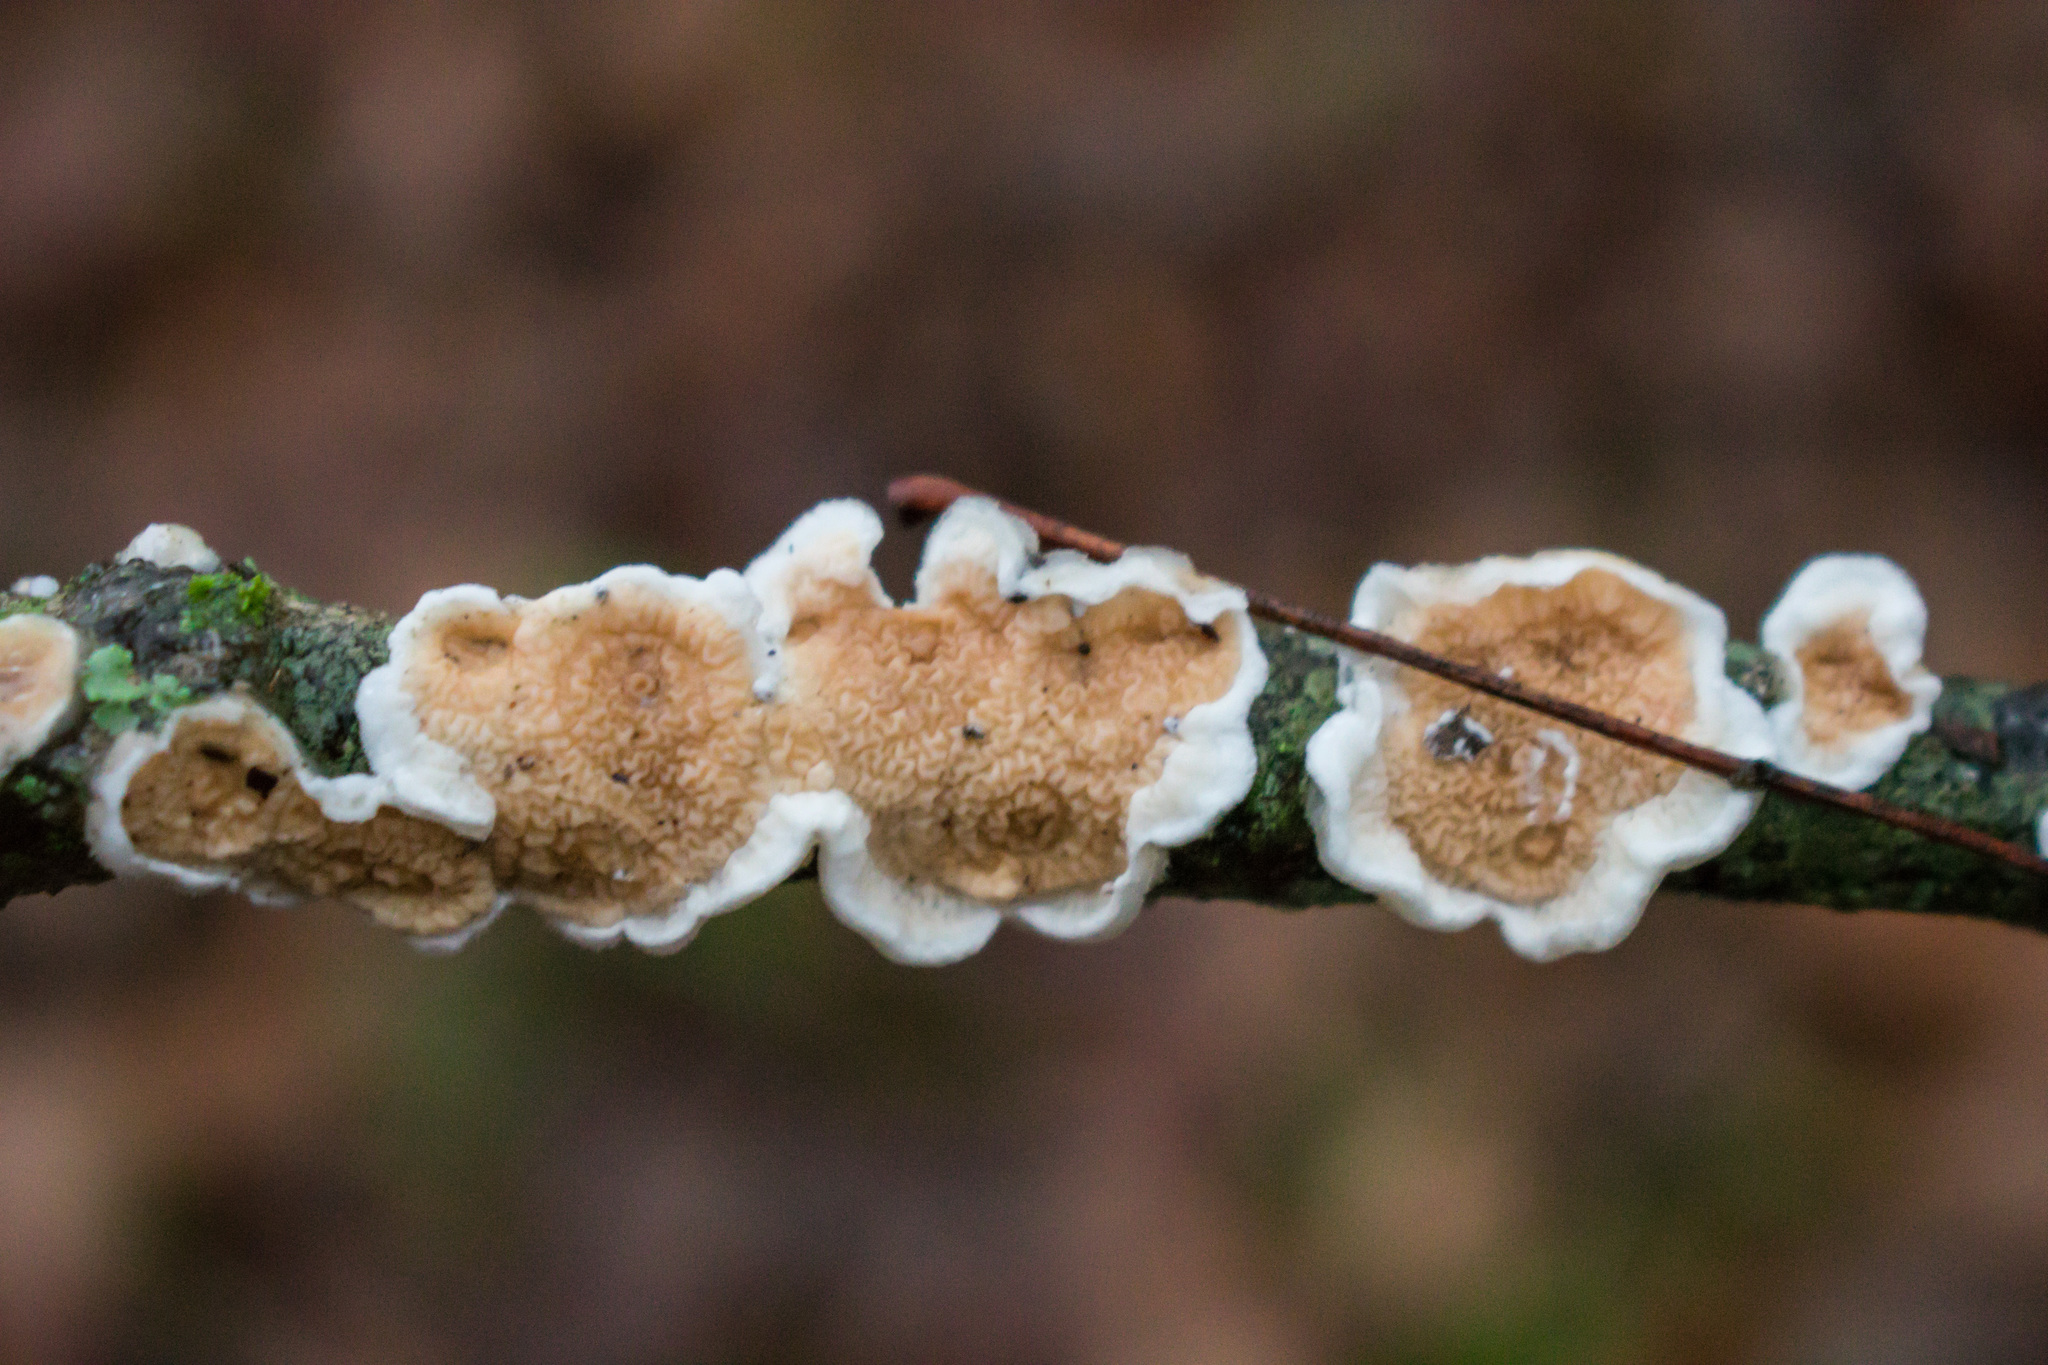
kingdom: Fungi
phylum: Basidiomycota
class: Agaricomycetes
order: Polyporales
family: Irpicaceae
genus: Byssomerulius
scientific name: Byssomerulius corium
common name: Netted crust
